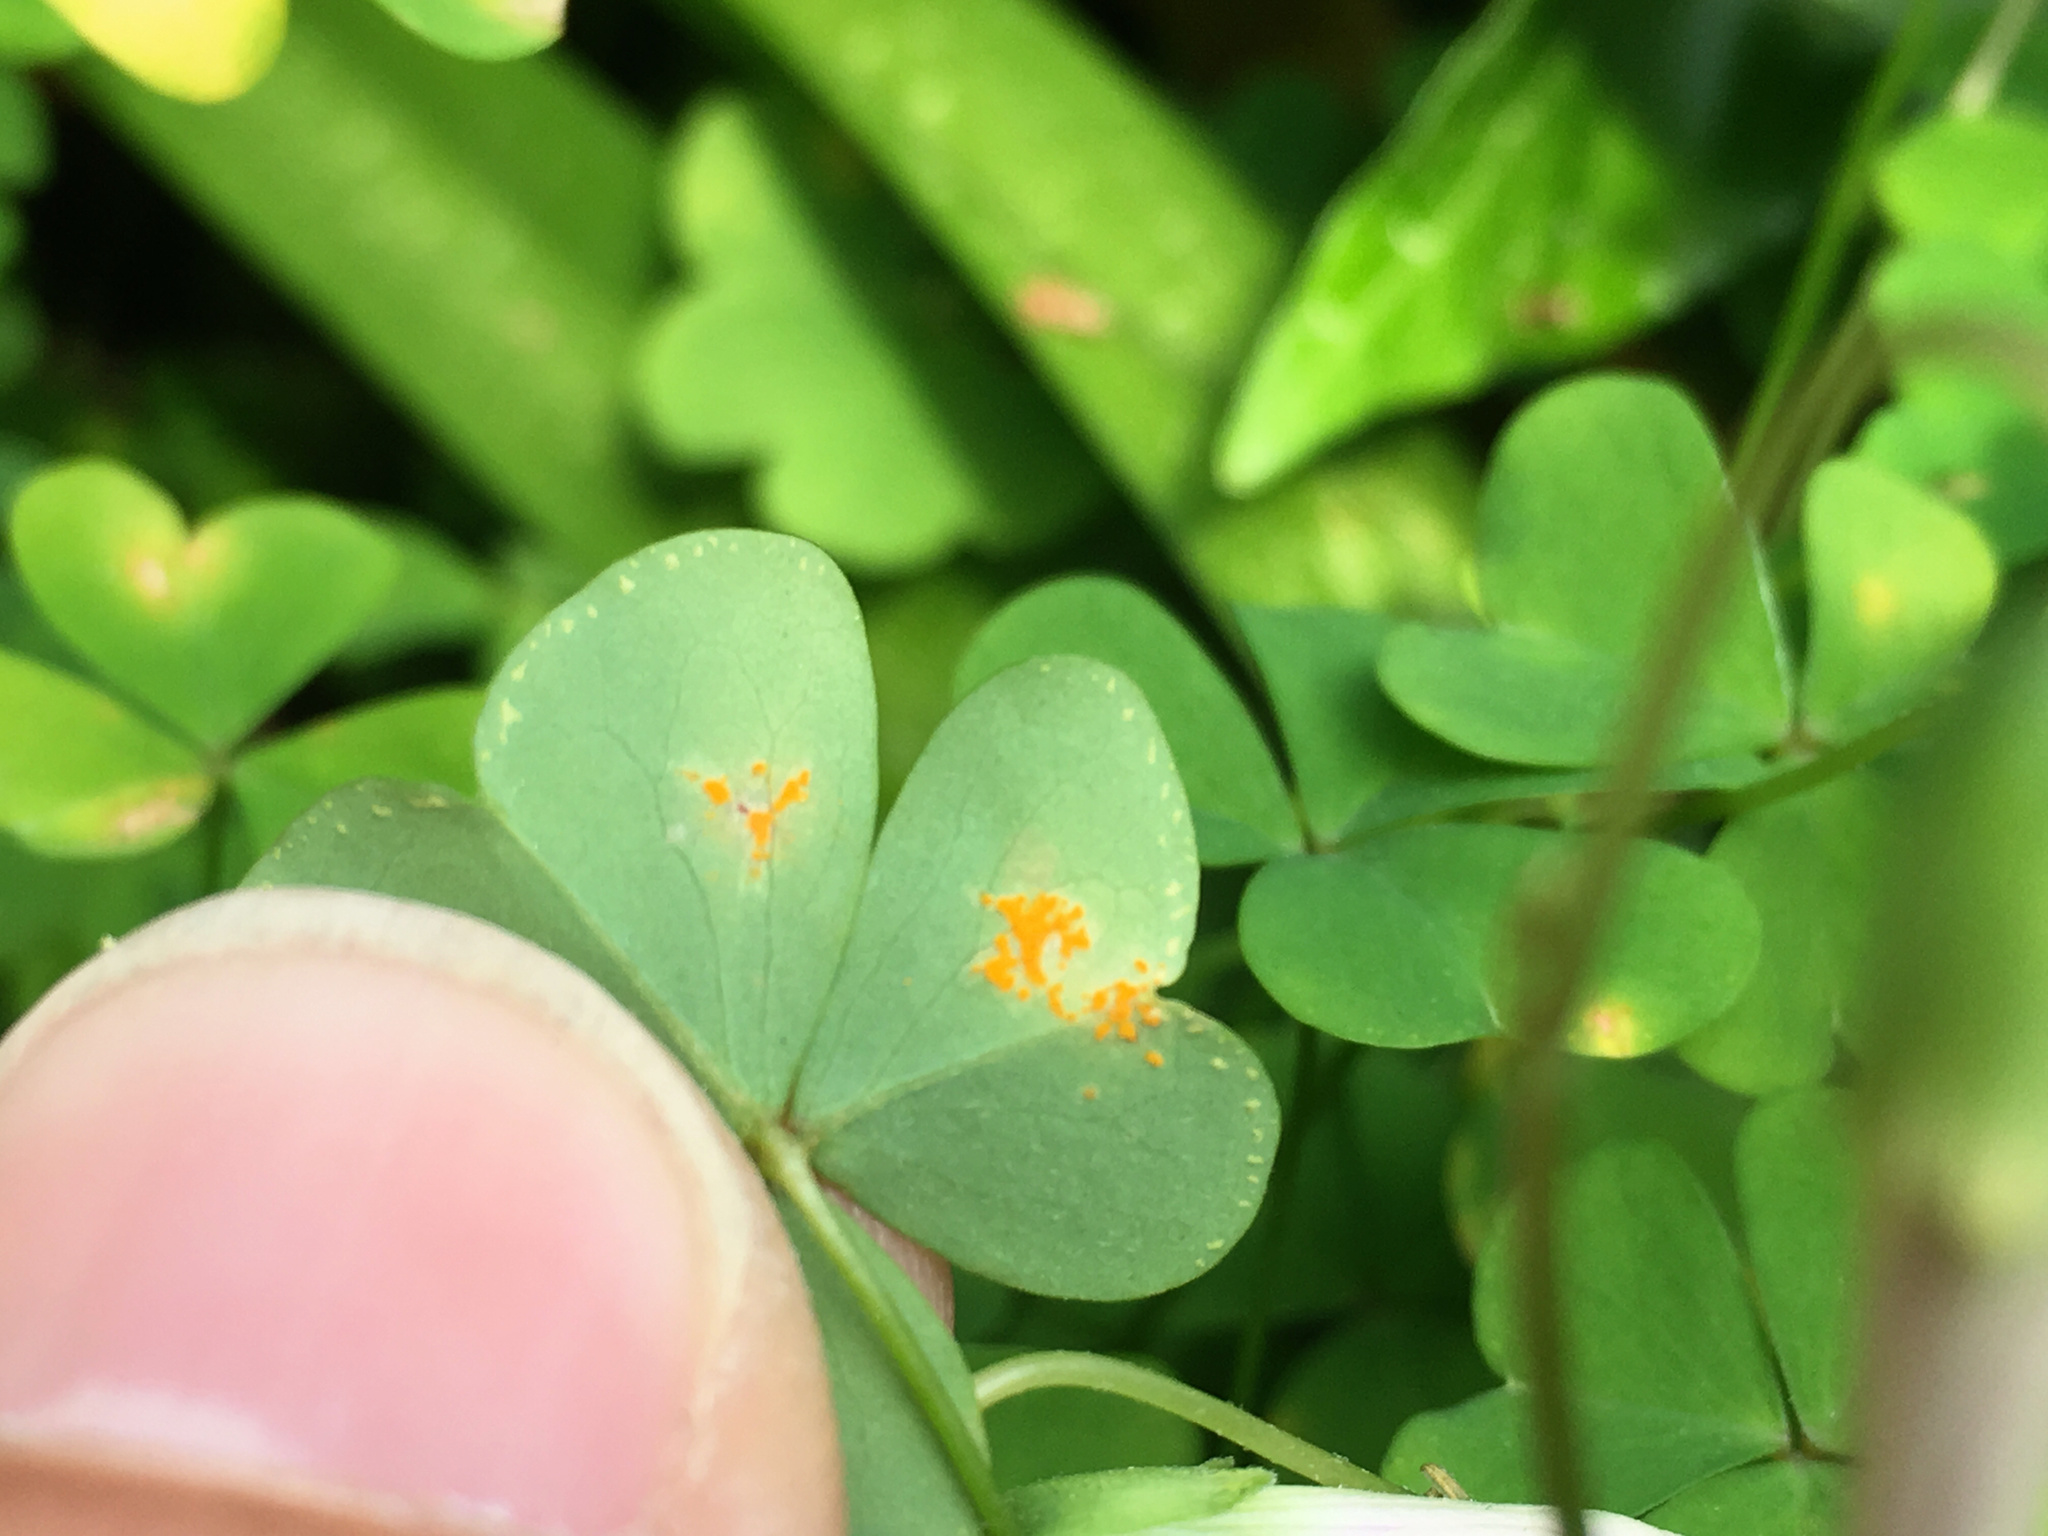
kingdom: Fungi
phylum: Basidiomycota
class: Pucciniomycetes
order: Pucciniales
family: Pucciniaceae
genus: Puccinia
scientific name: Puccinia oxalidis
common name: Oxalis rust
